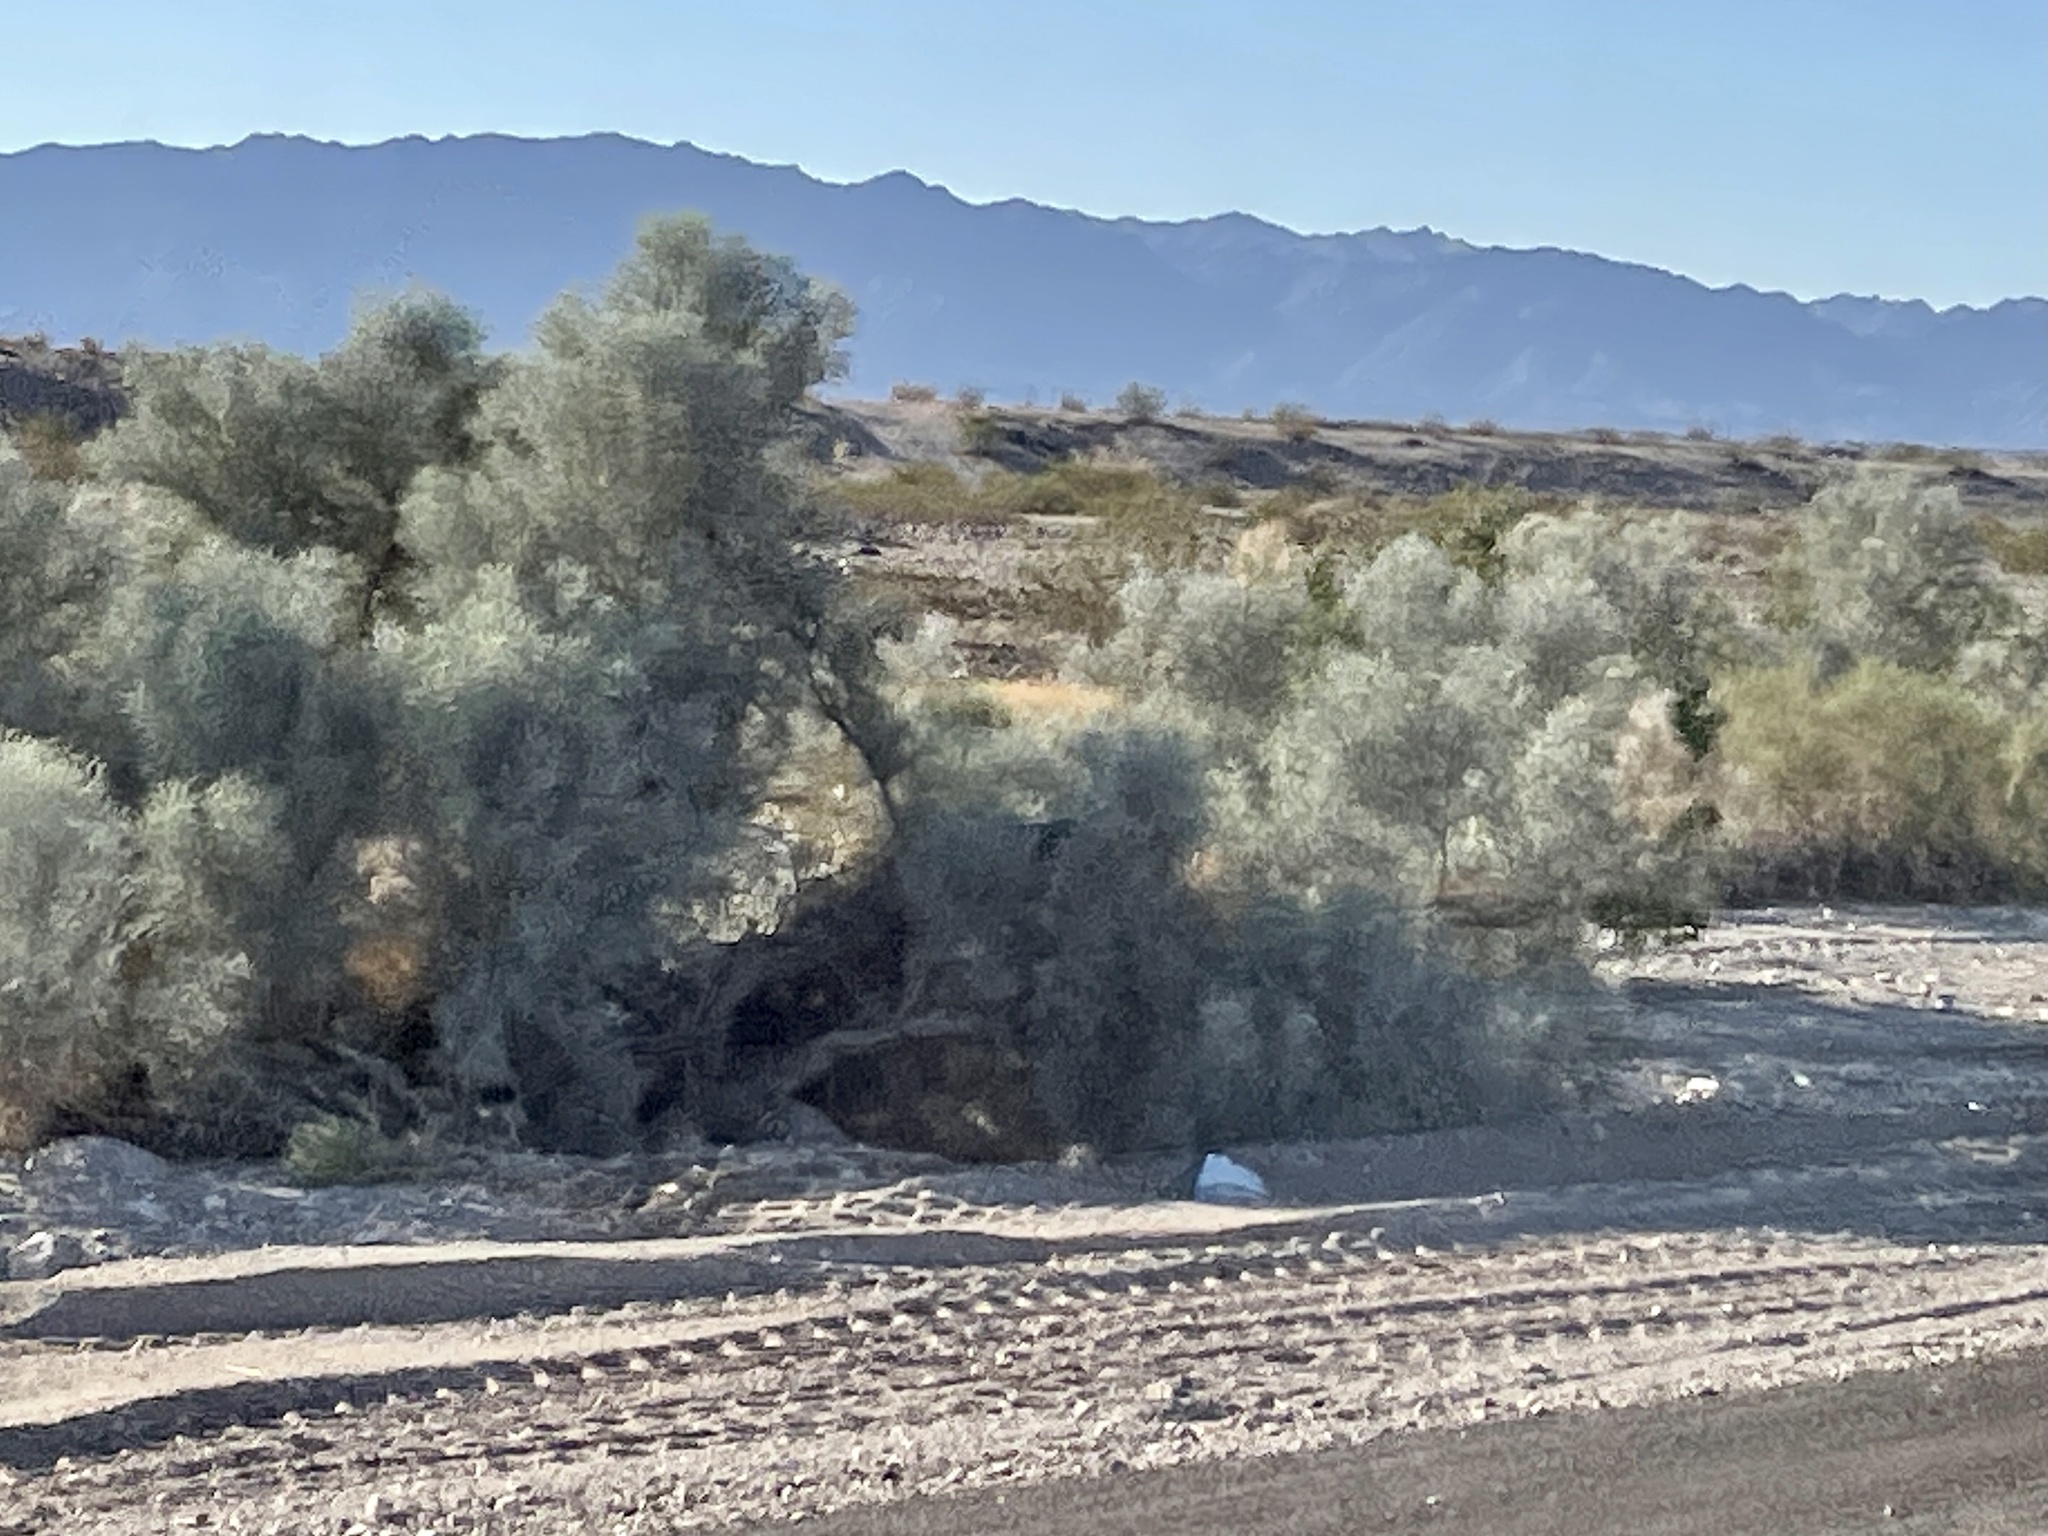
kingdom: Plantae
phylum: Tracheophyta
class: Magnoliopsida
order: Fabales
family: Fabaceae
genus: Psorothamnus
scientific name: Psorothamnus spinosus
